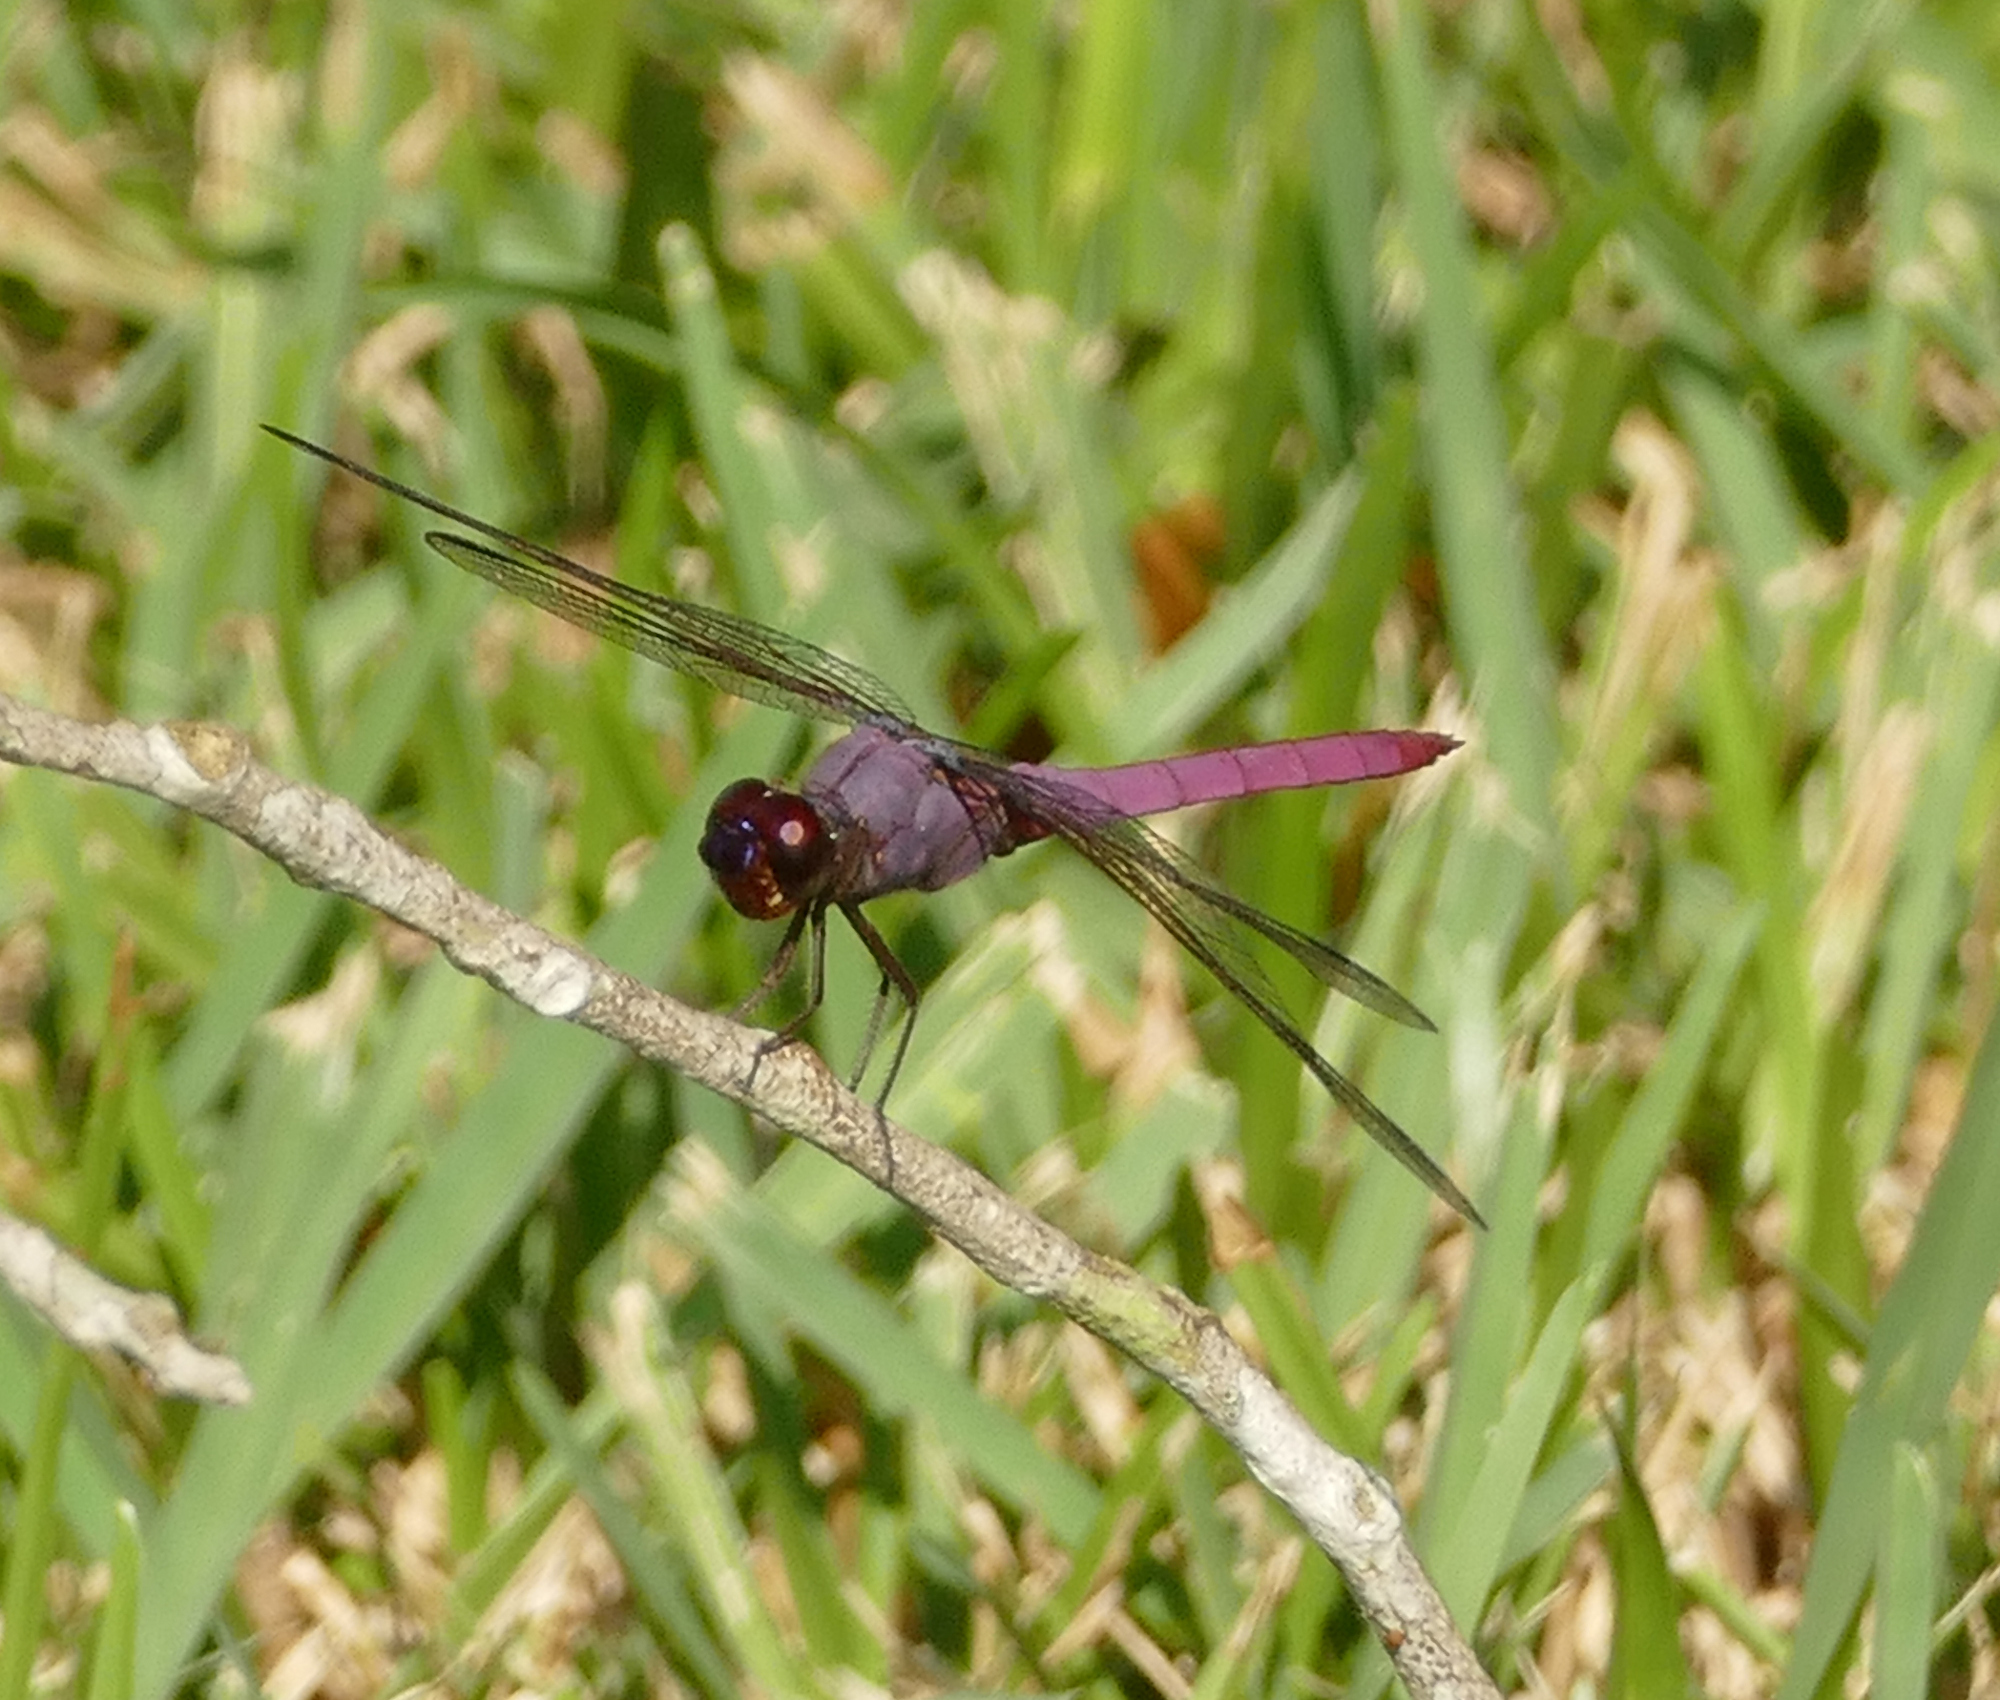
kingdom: Animalia
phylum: Arthropoda
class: Insecta
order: Odonata
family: Libellulidae
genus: Orthemis
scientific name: Orthemis ferruginea
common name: Roseate skimmer
